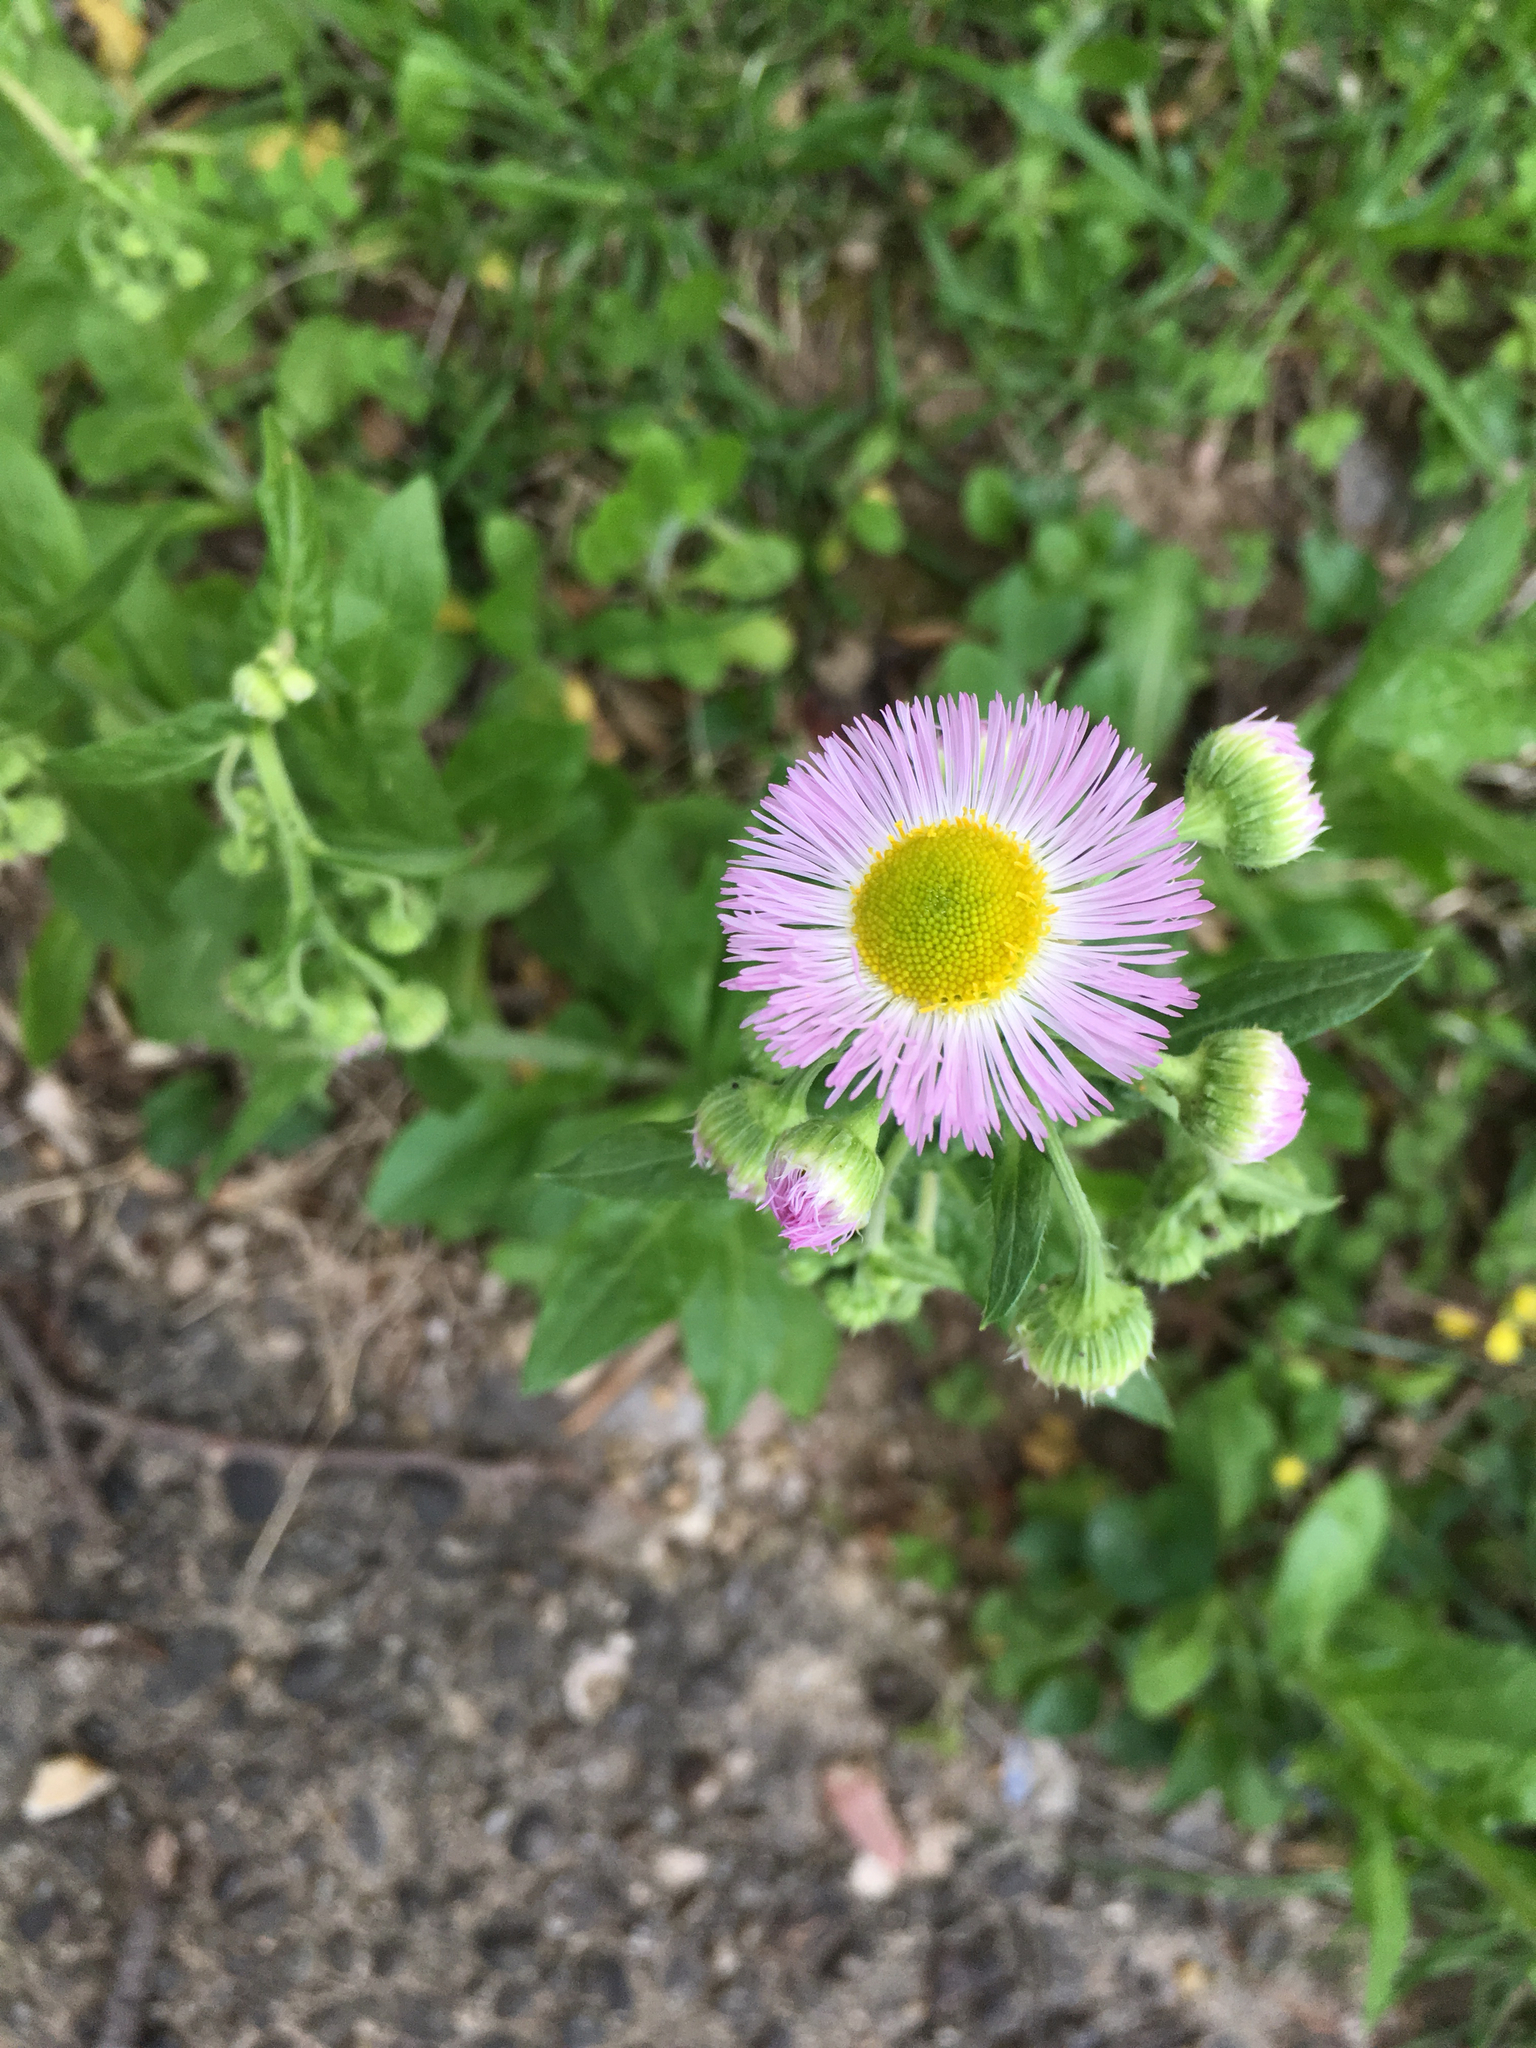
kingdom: Plantae
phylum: Tracheophyta
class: Magnoliopsida
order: Asterales
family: Asteraceae
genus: Erigeron
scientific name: Erigeron philadelphicus
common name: Robin's-plantain
